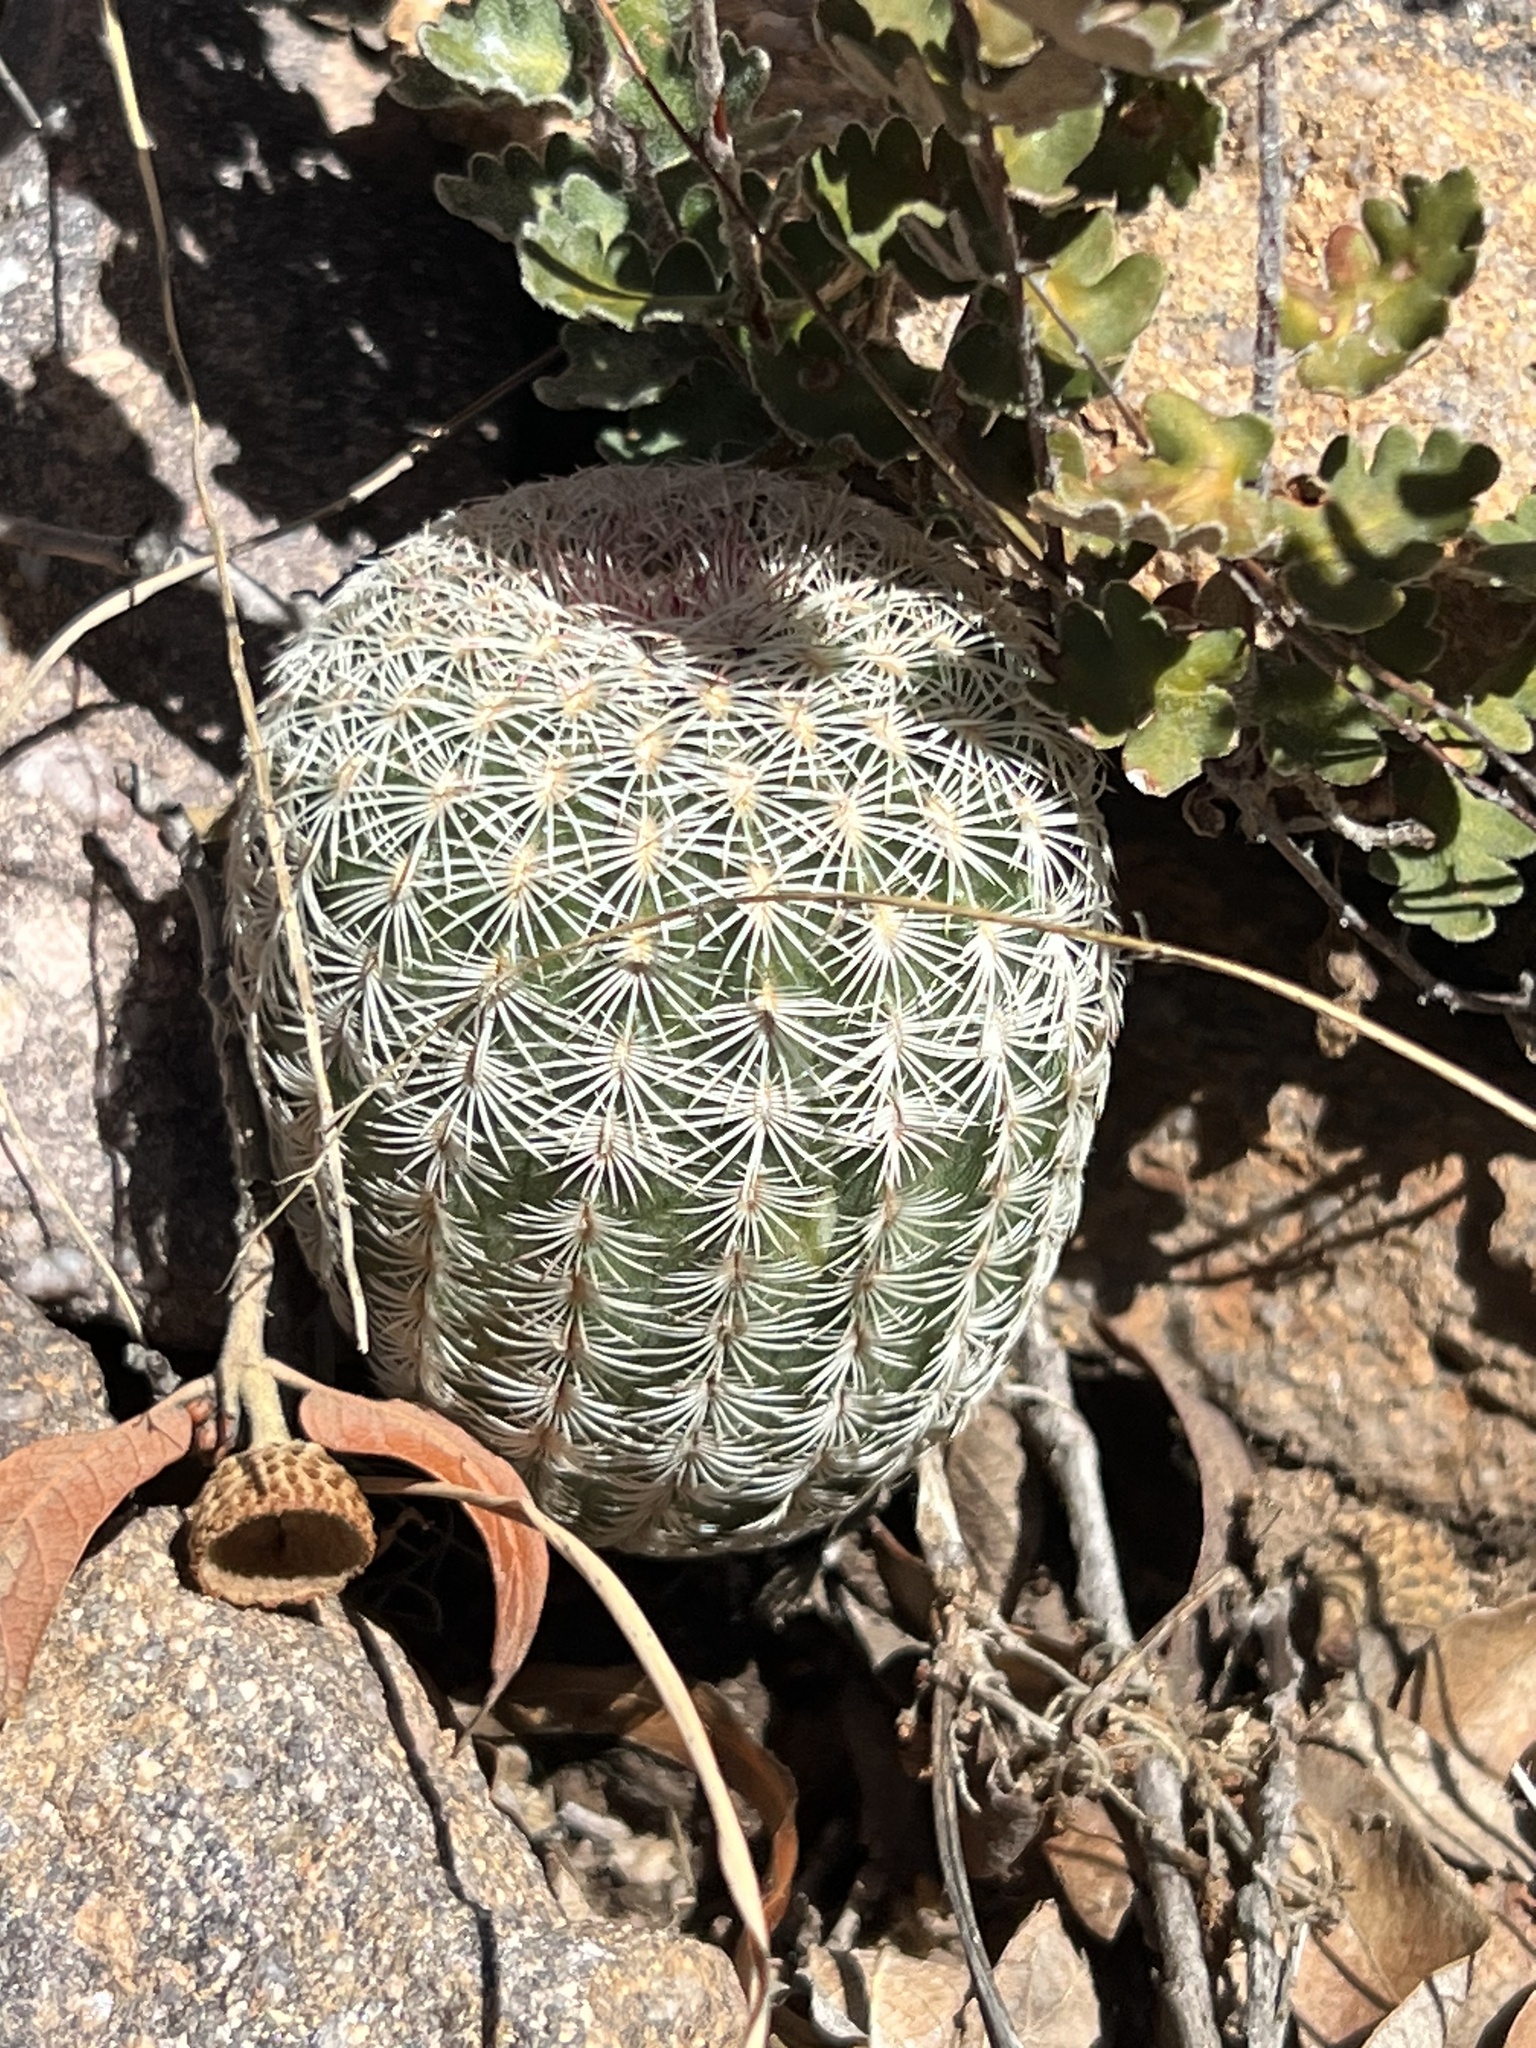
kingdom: Plantae
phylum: Tracheophyta
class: Magnoliopsida
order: Caryophyllales
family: Cactaceae
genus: Echinocereus
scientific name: Echinocereus rigidissimus
